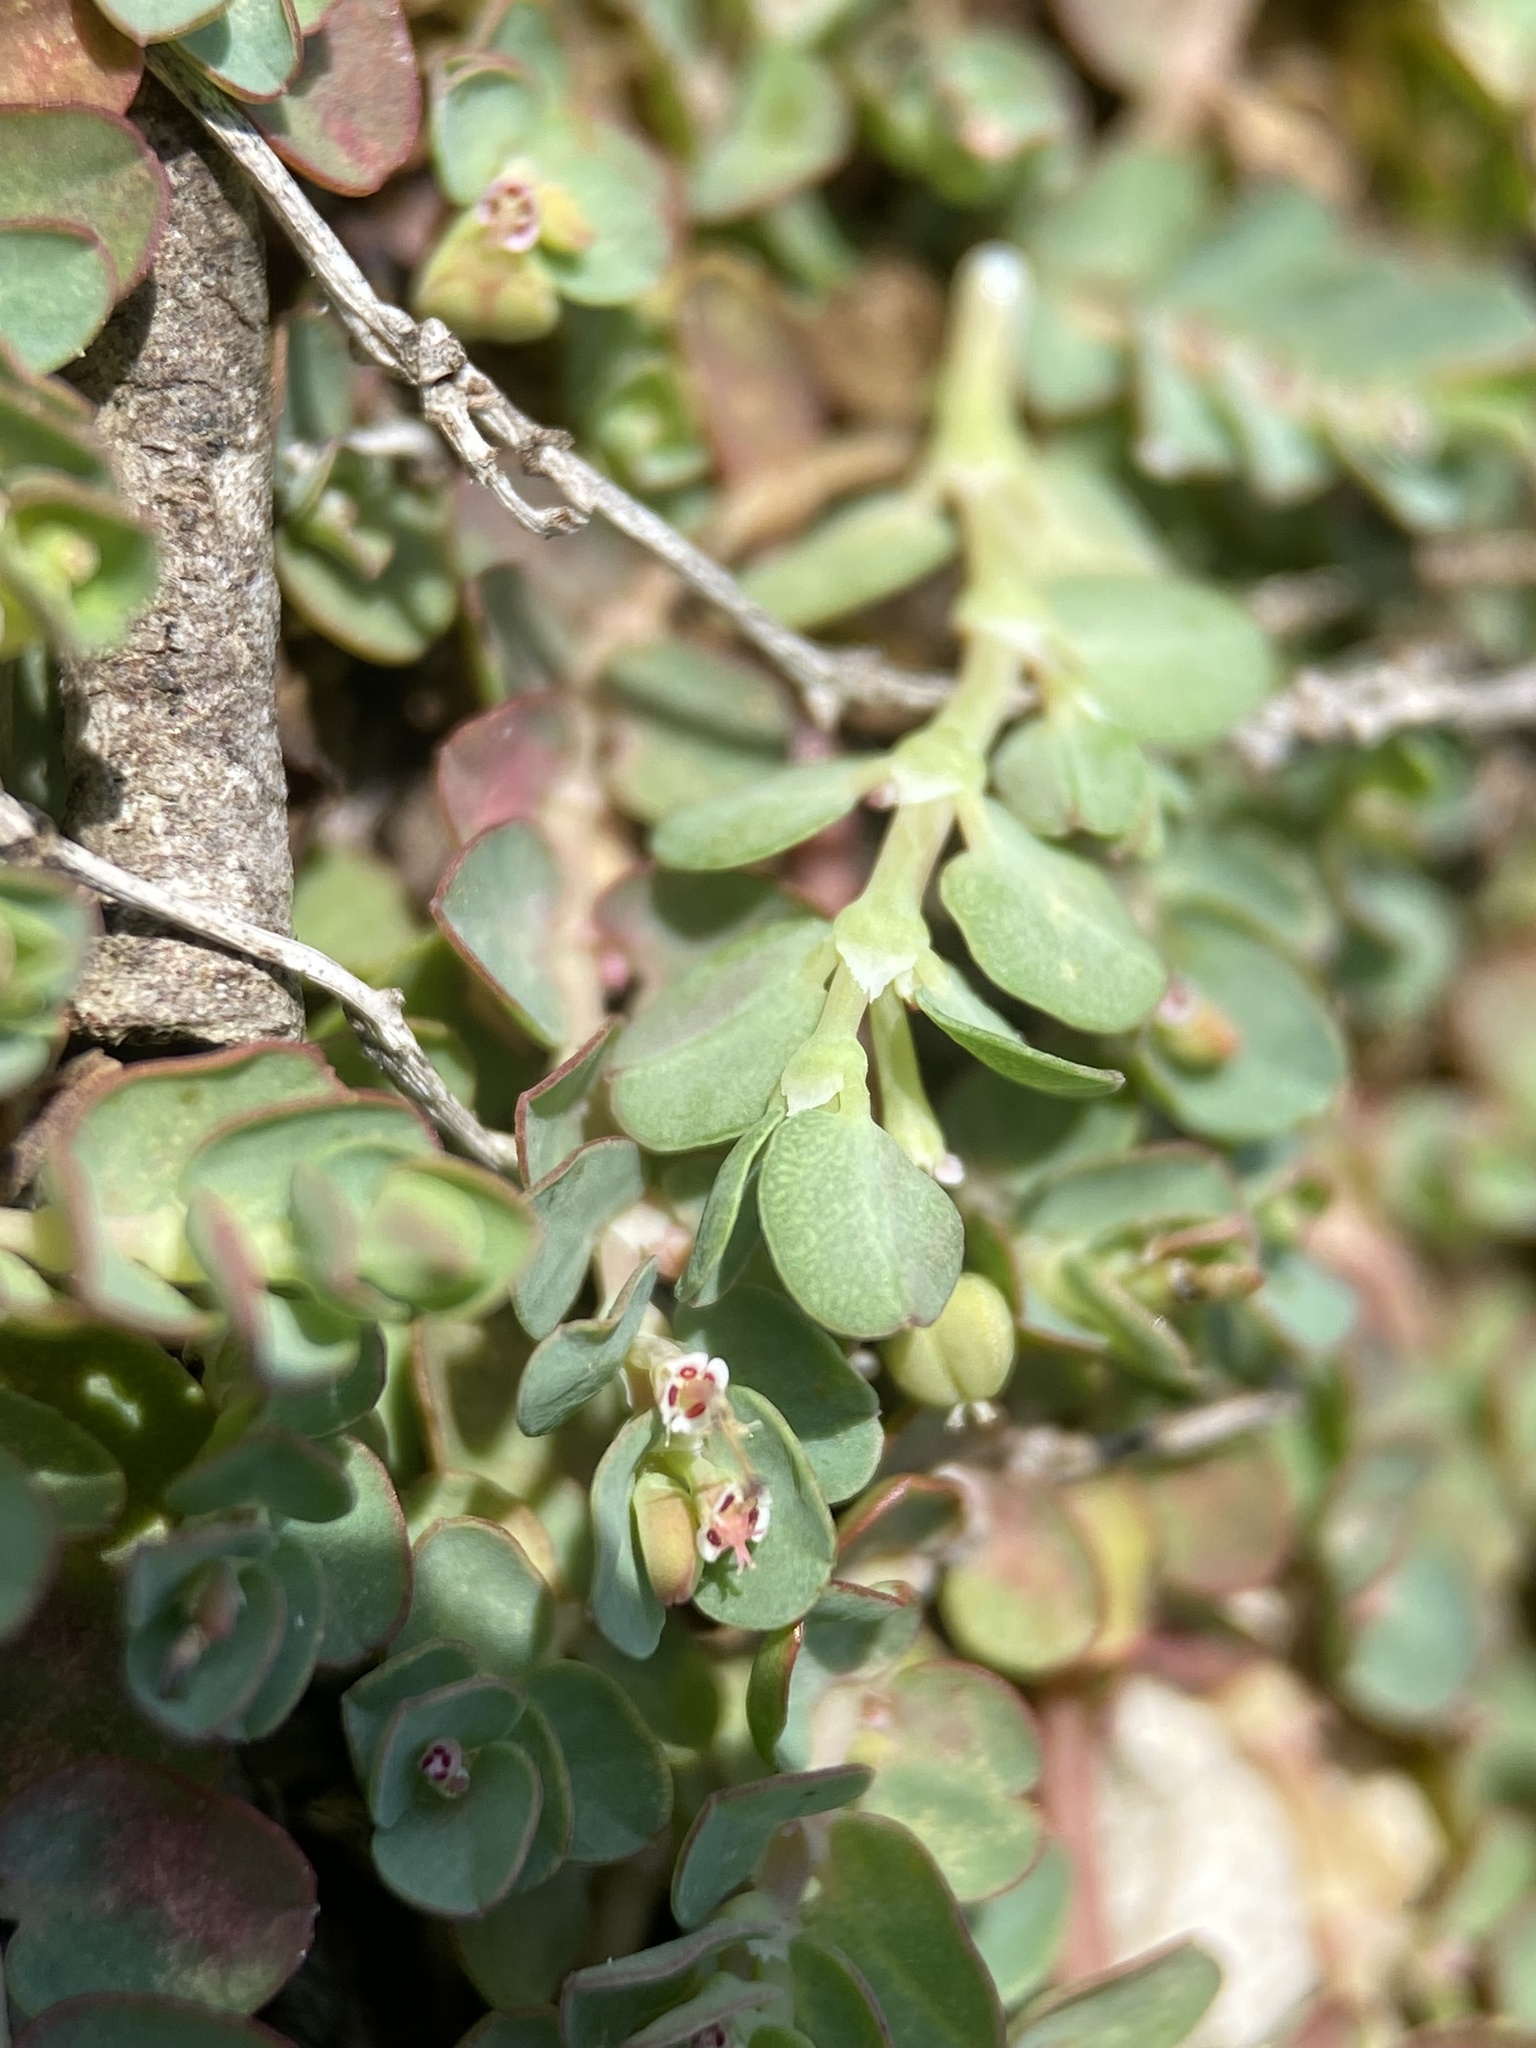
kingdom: Plantae
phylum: Tracheophyta
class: Magnoliopsida
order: Malpighiales
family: Euphorbiaceae
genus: Euphorbia
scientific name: Euphorbia serpens
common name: Matted sandmat
